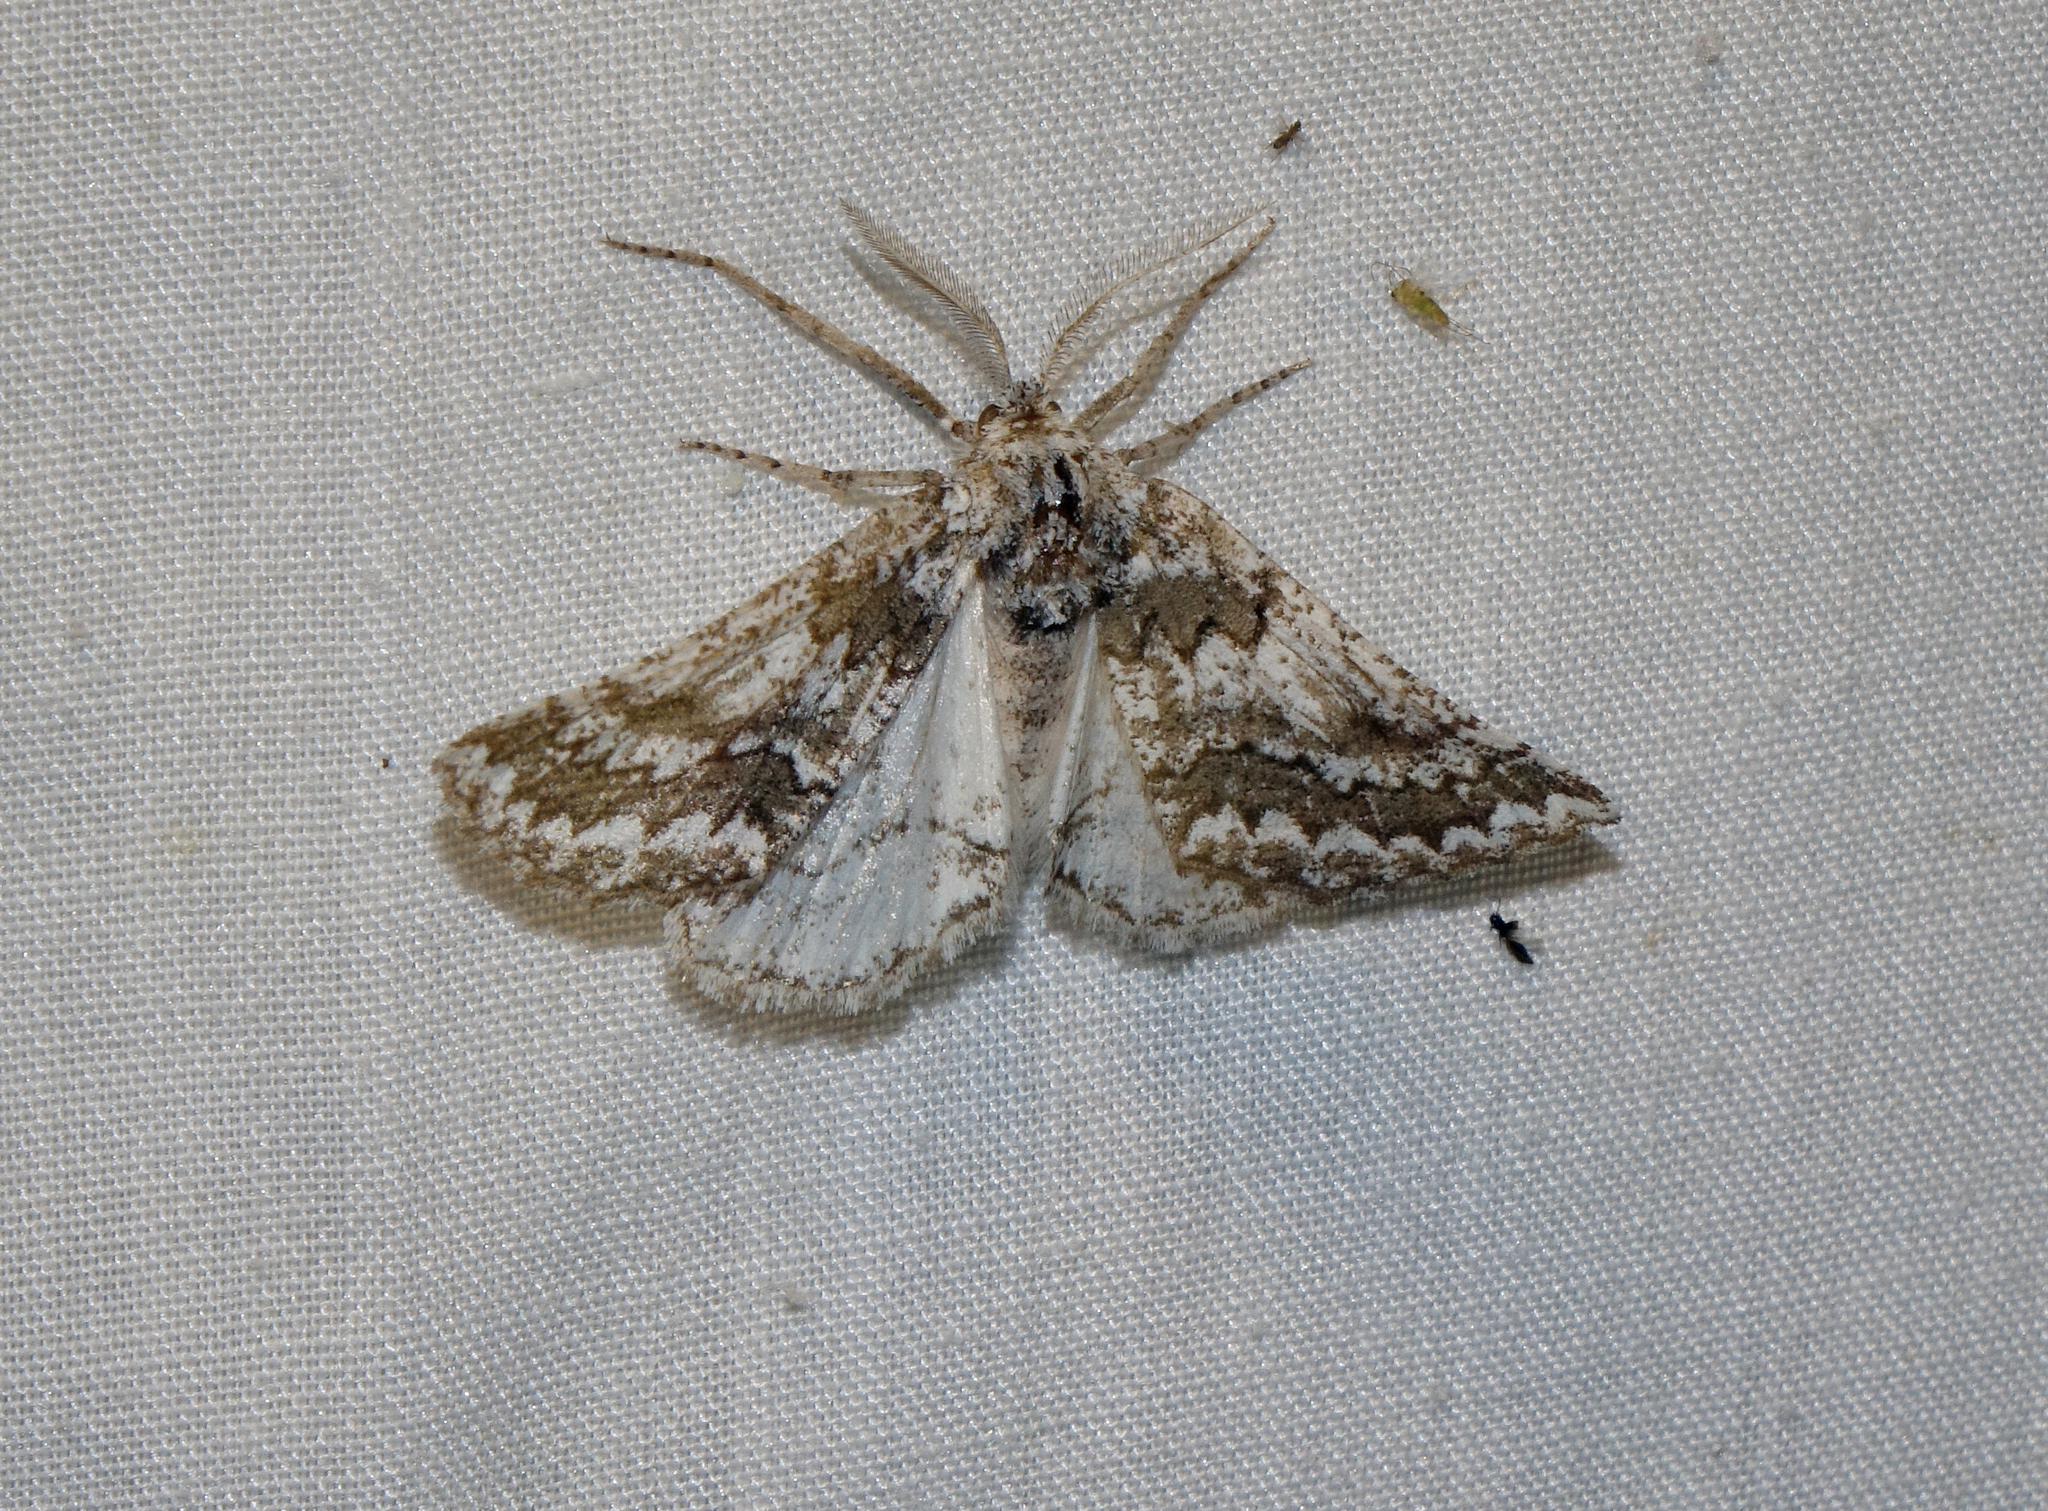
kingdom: Animalia
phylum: Arthropoda
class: Insecta
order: Lepidoptera
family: Geometridae
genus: Phaselia
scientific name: Phaselia serrularia
